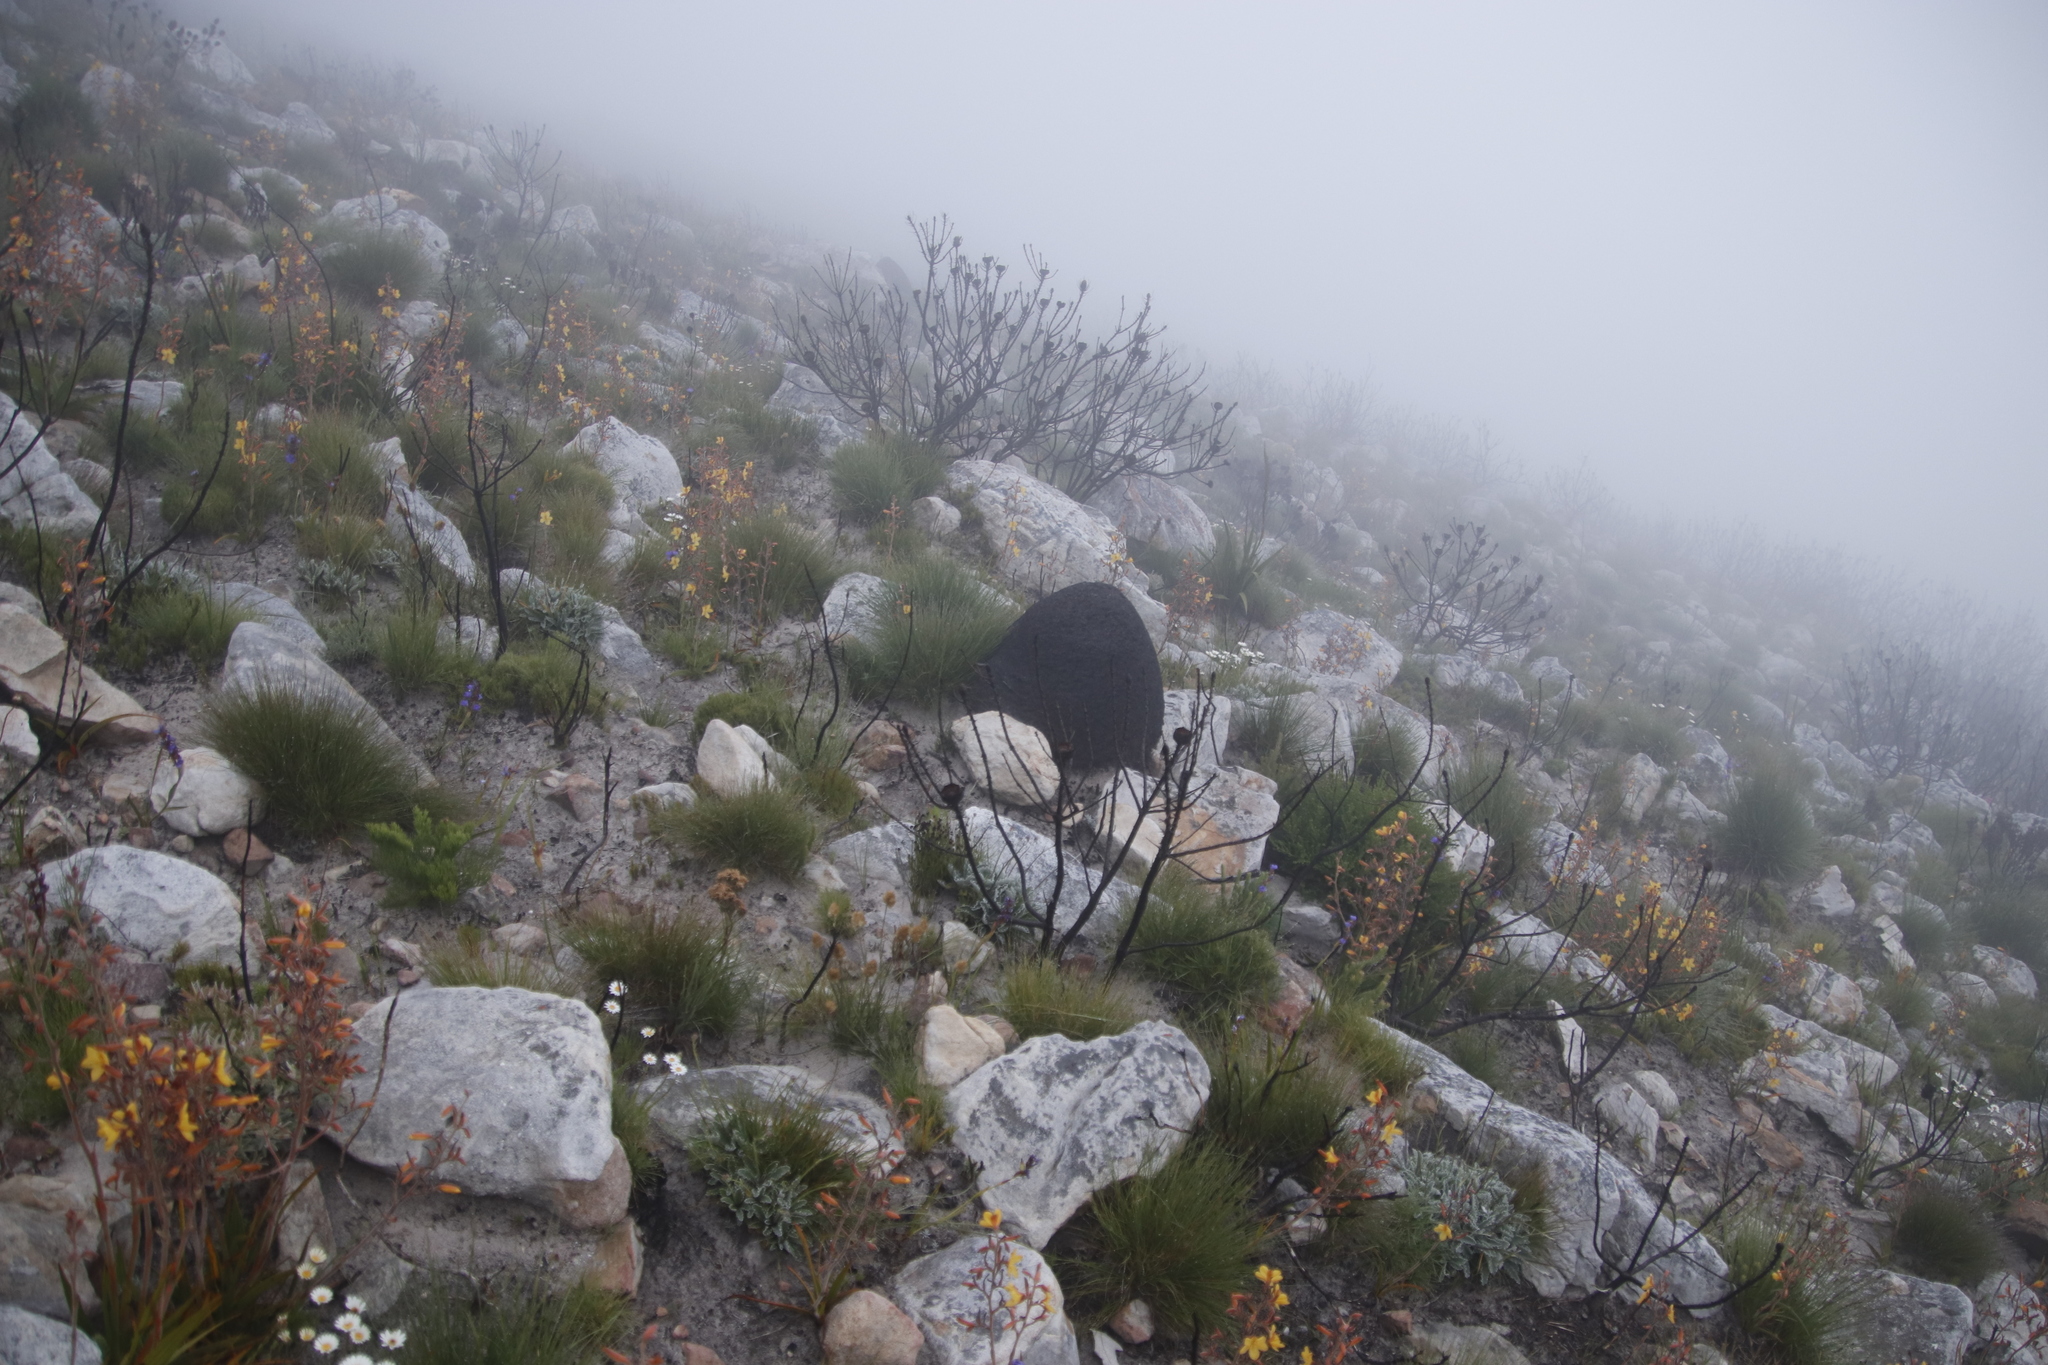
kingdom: Animalia
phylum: Arthropoda
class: Insecta
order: Blattodea
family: Termitidae
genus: Amitermes
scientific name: Amitermes hastatus
